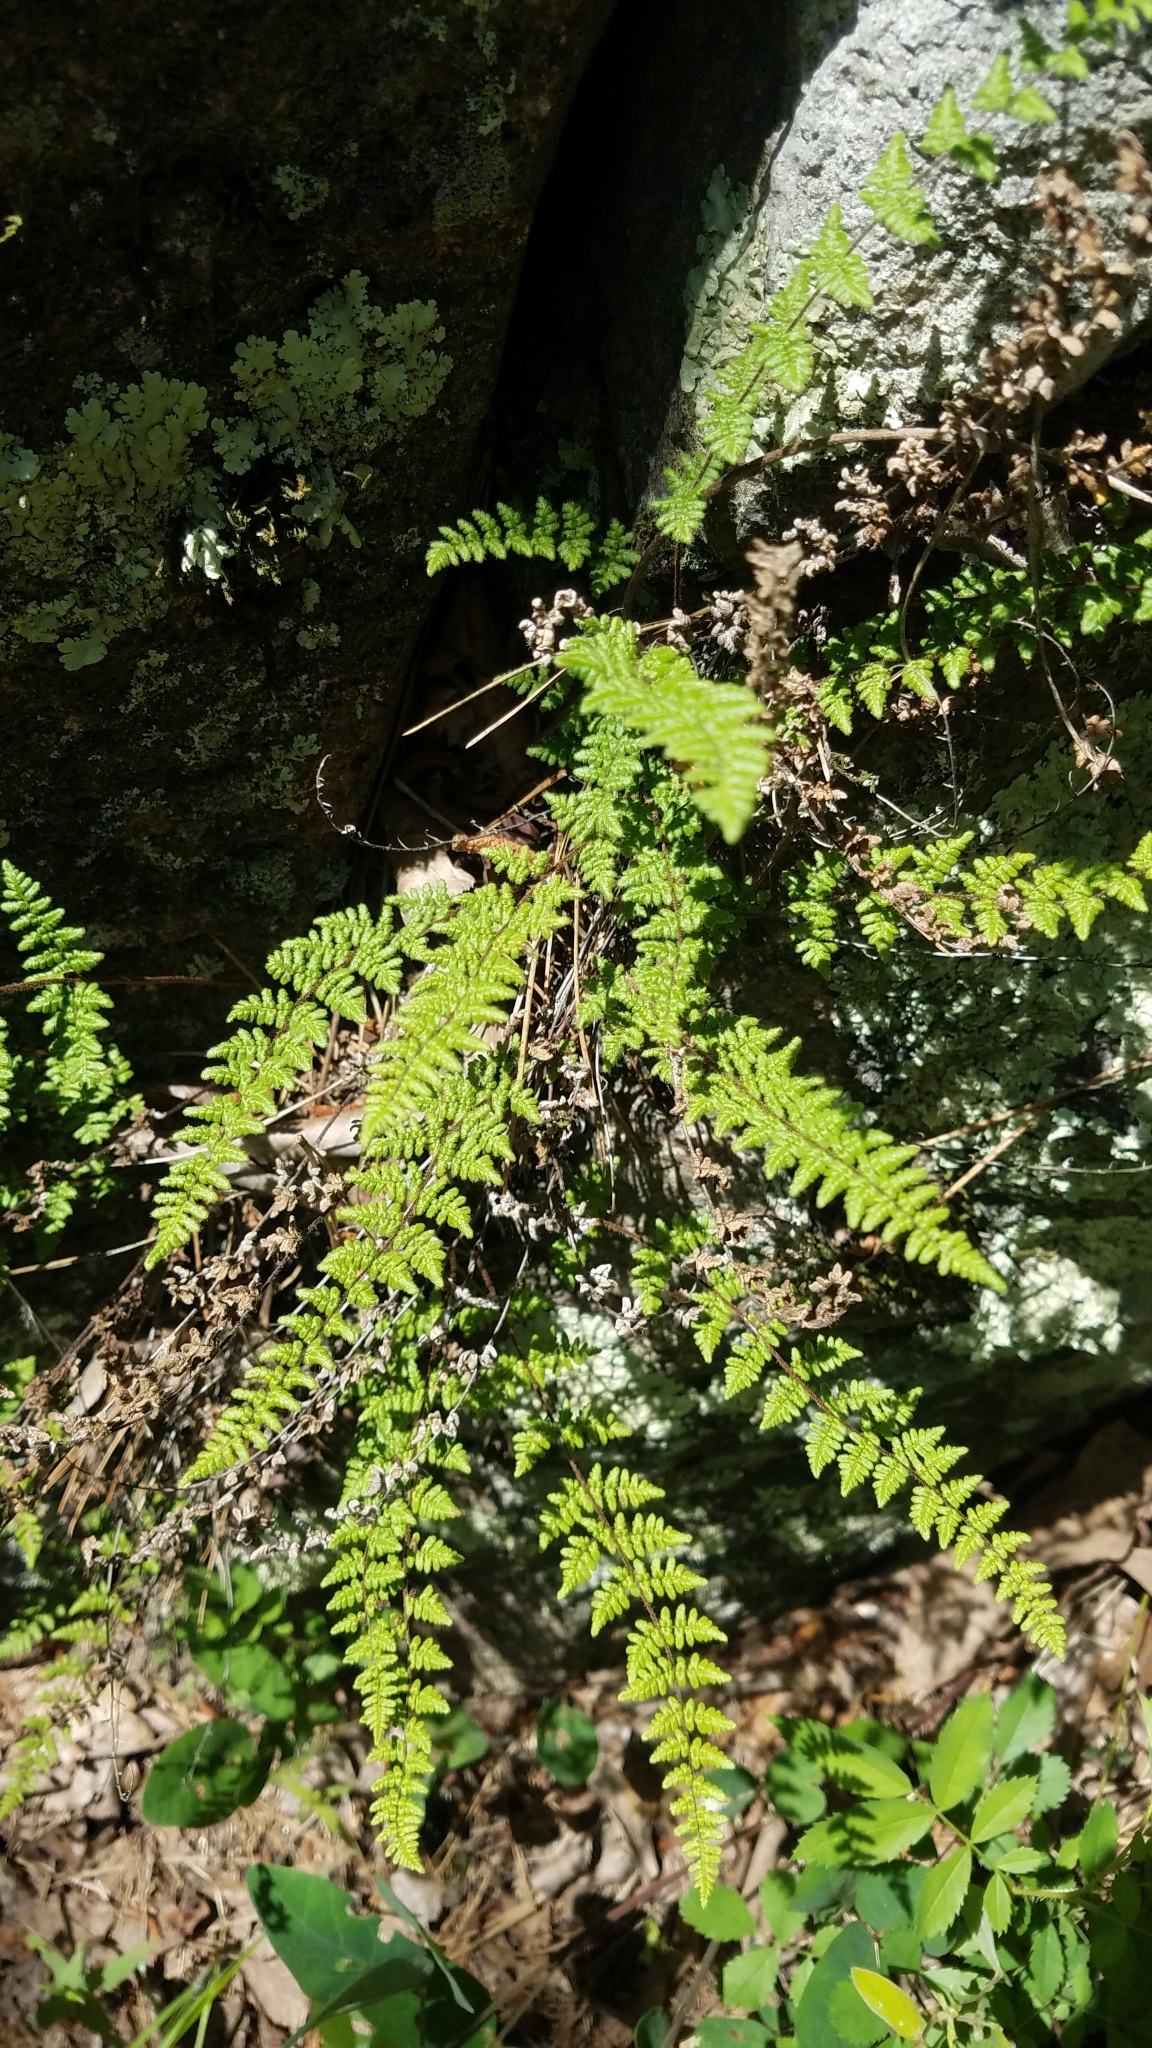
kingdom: Plantae
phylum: Tracheophyta
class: Polypodiopsida
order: Polypodiales
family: Pteridaceae
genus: Myriopteris
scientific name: Myriopteris lanosa
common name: Hairy lip fern
